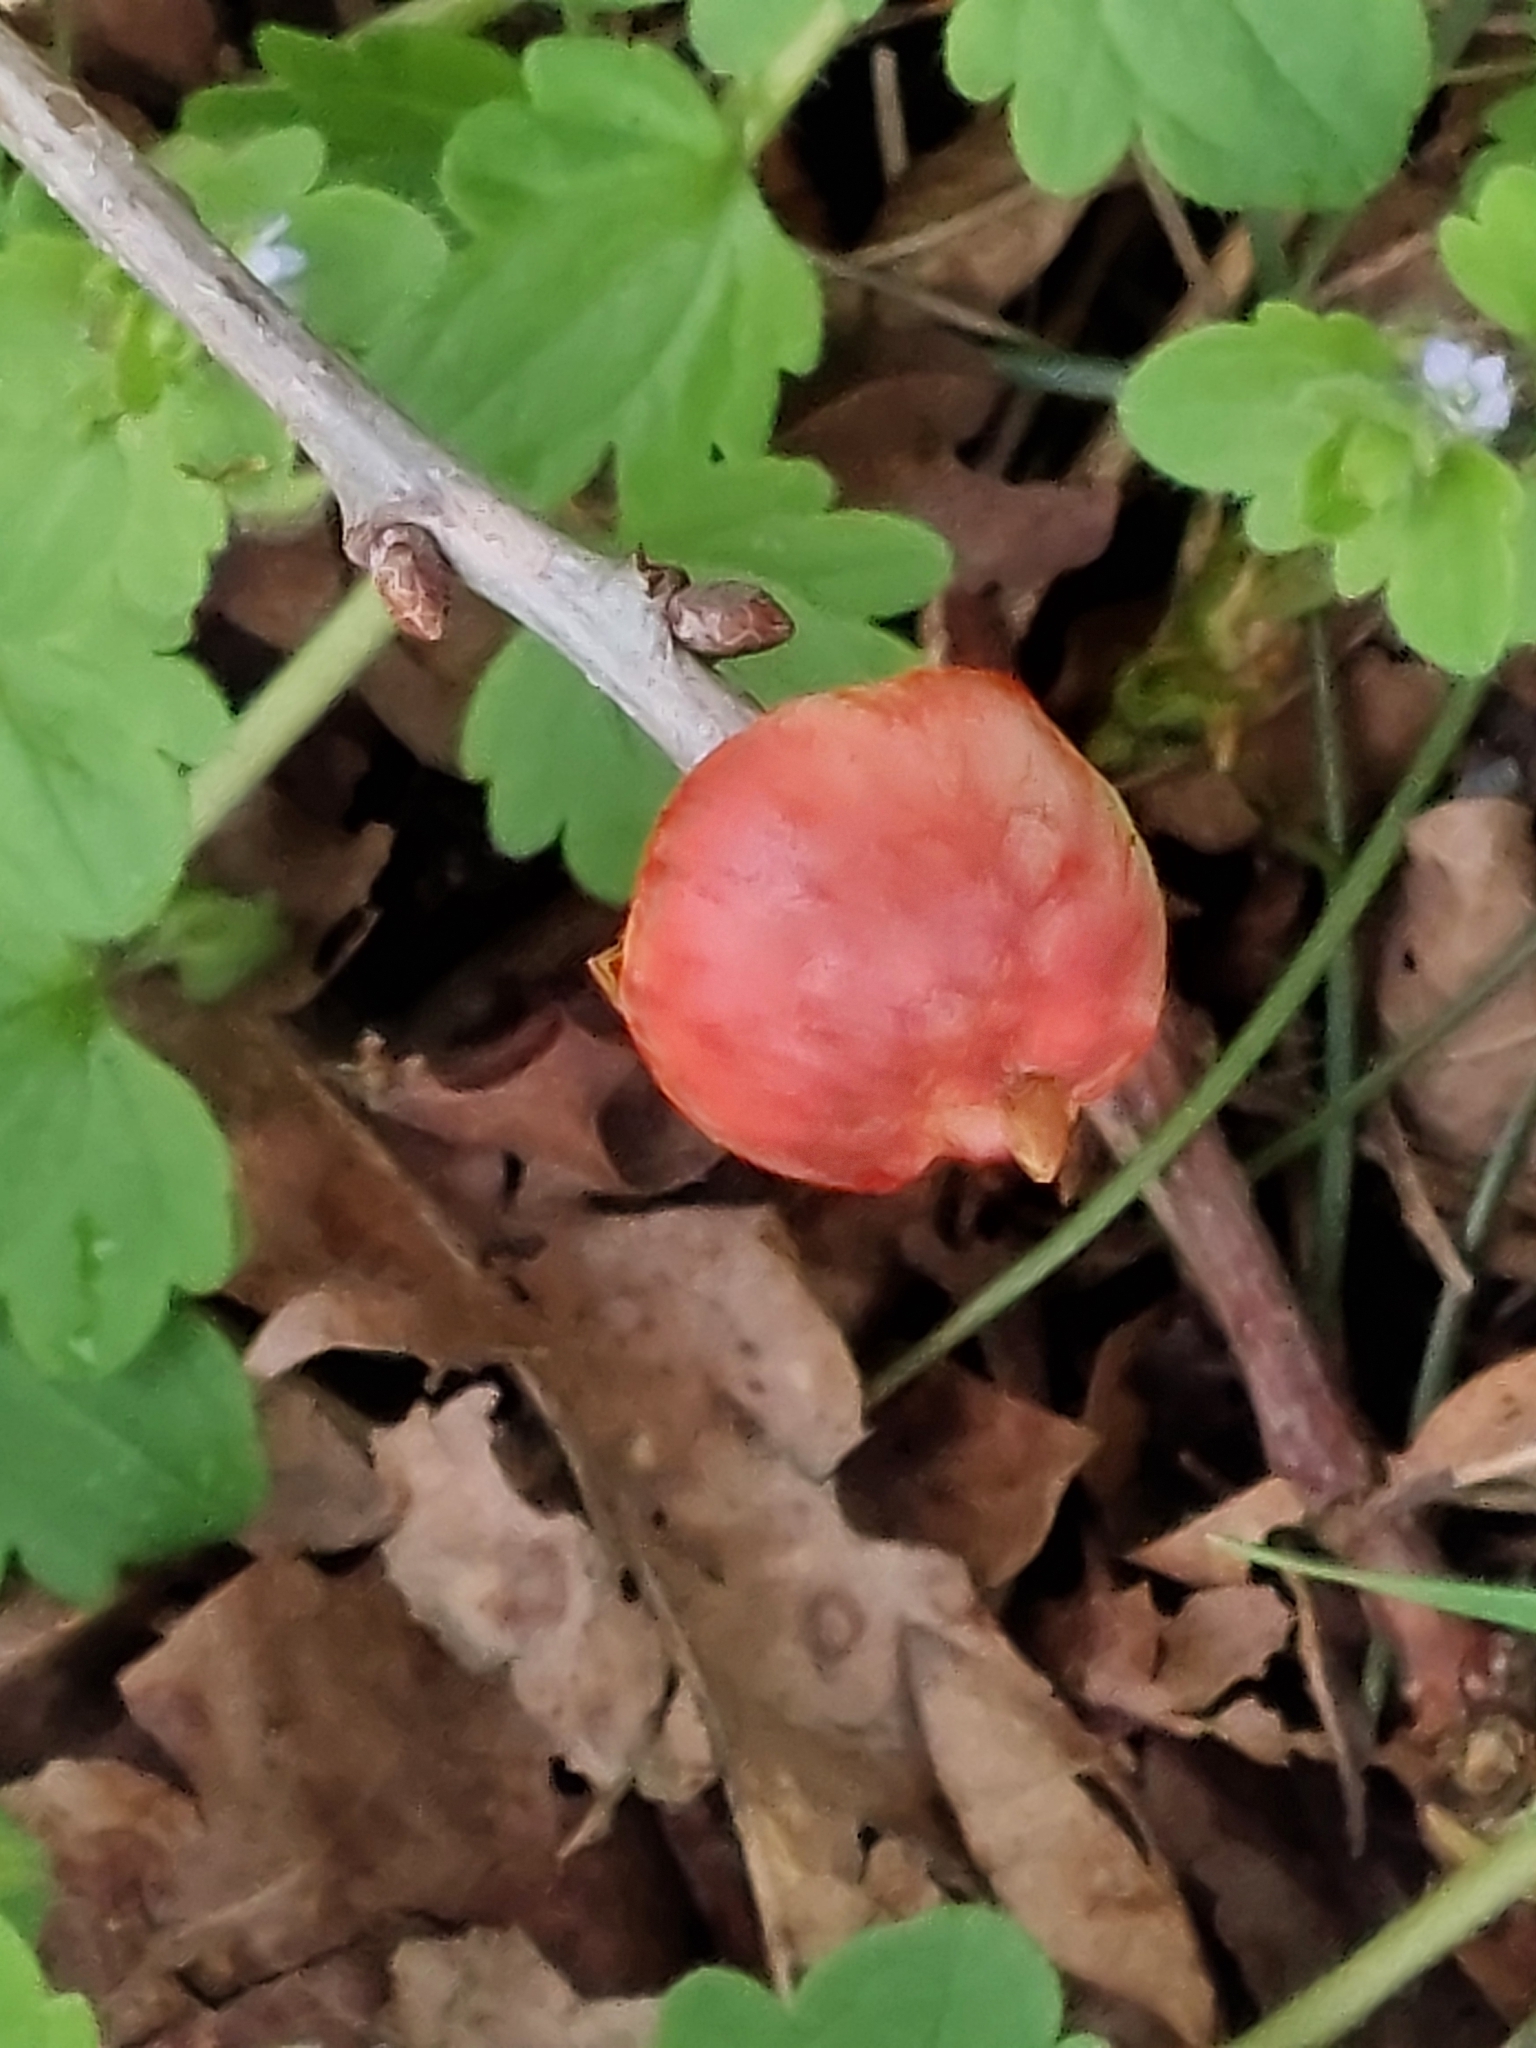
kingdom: Animalia
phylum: Arthropoda
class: Insecta
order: Hymenoptera
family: Cynipidae
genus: Biorhiza
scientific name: Biorhiza pallida
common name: Oak apple
